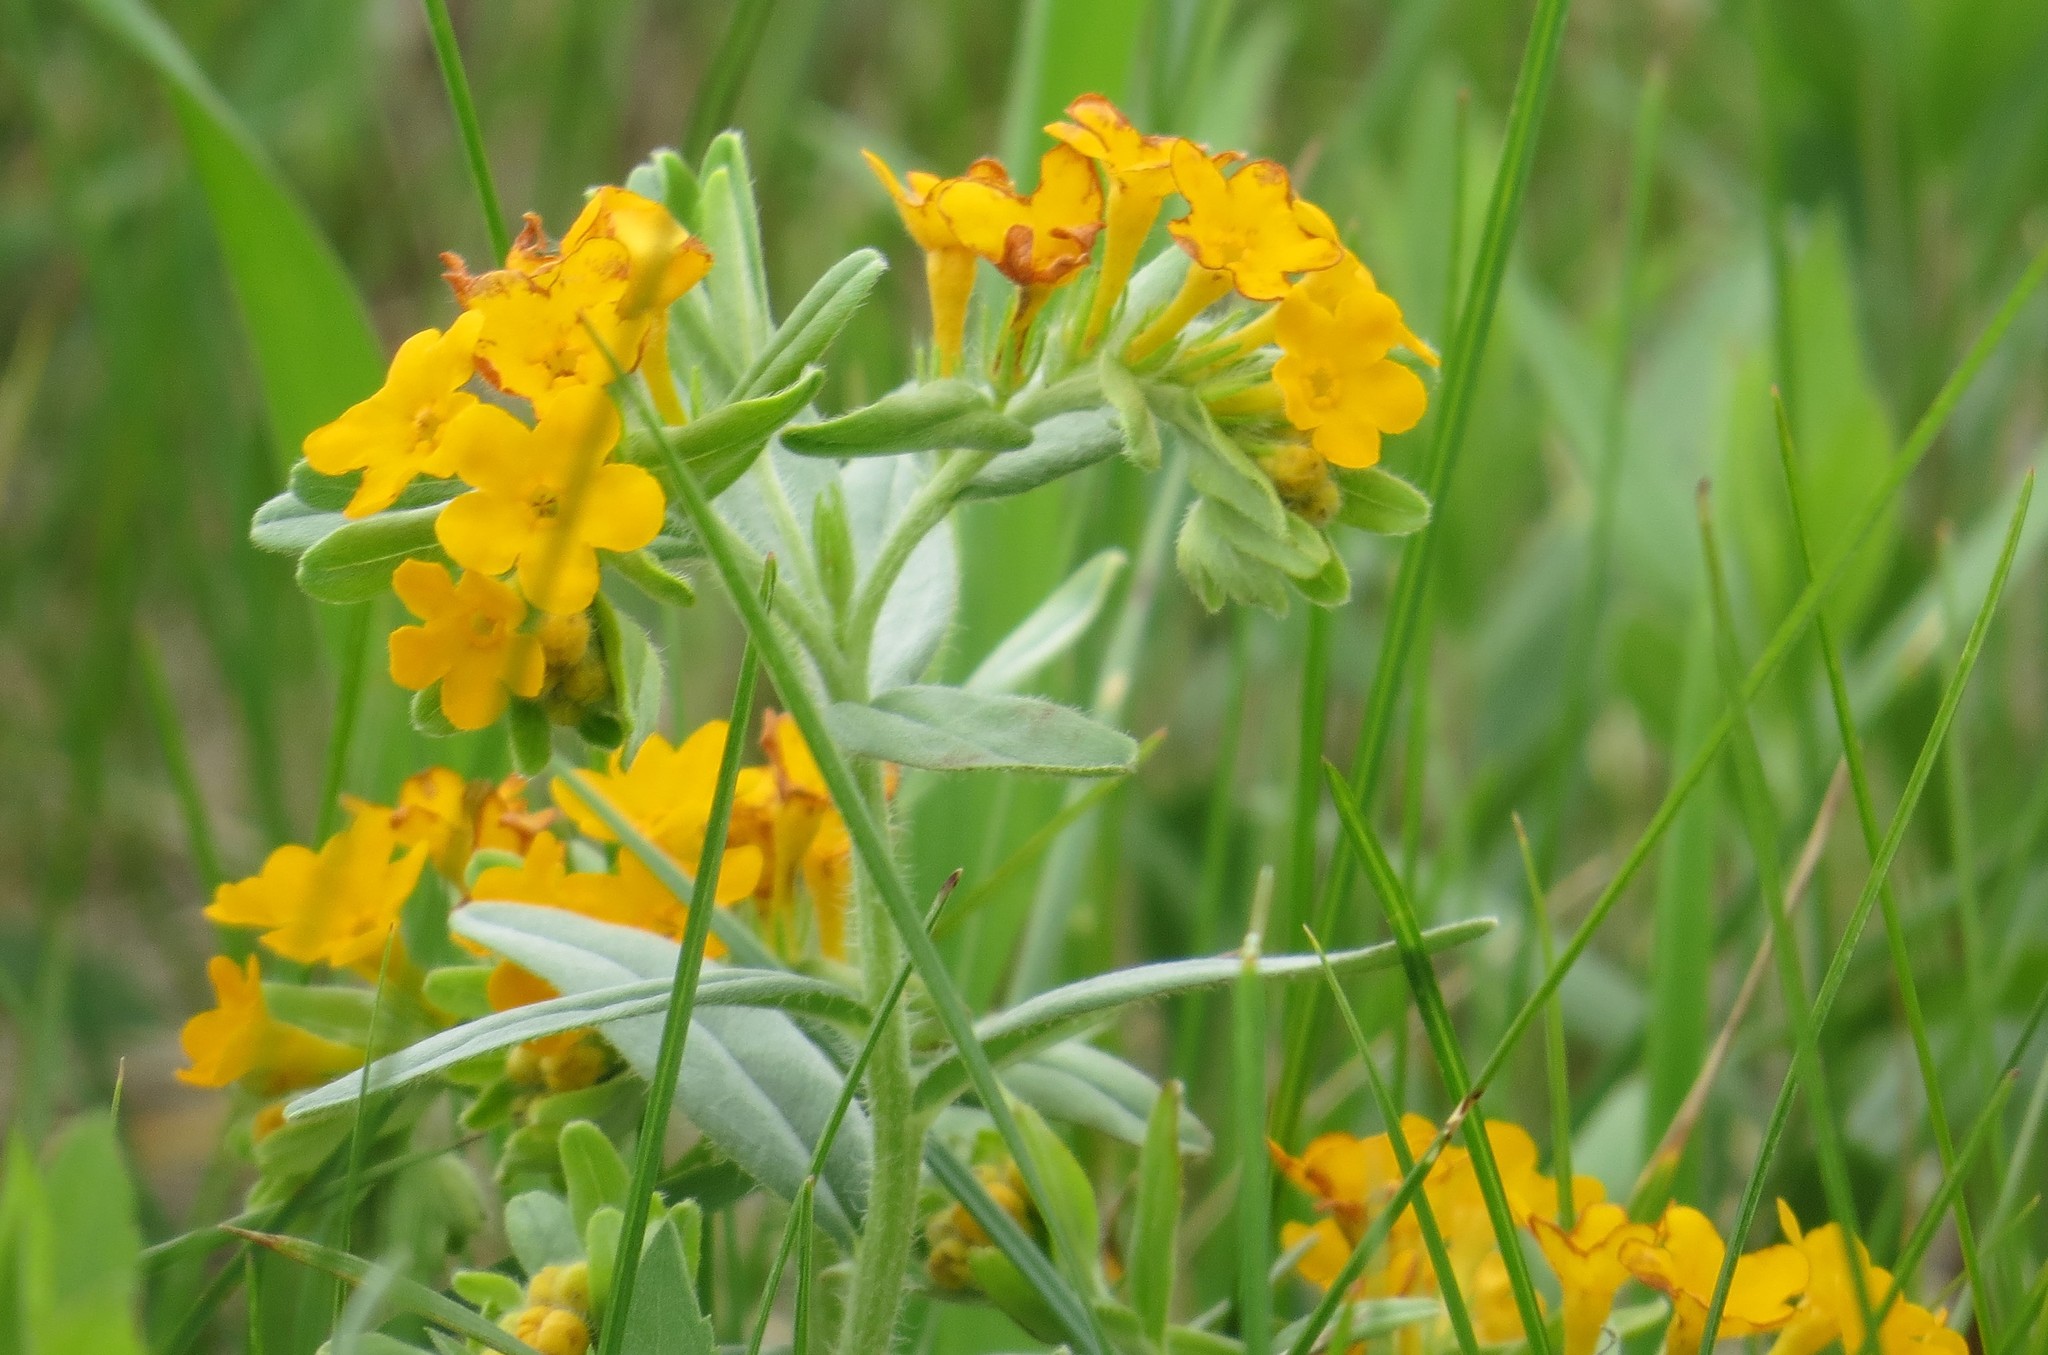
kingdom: Plantae
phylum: Tracheophyta
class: Magnoliopsida
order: Boraginales
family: Boraginaceae
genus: Lithospermum
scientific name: Lithospermum canescens
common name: Hoary puccoon
